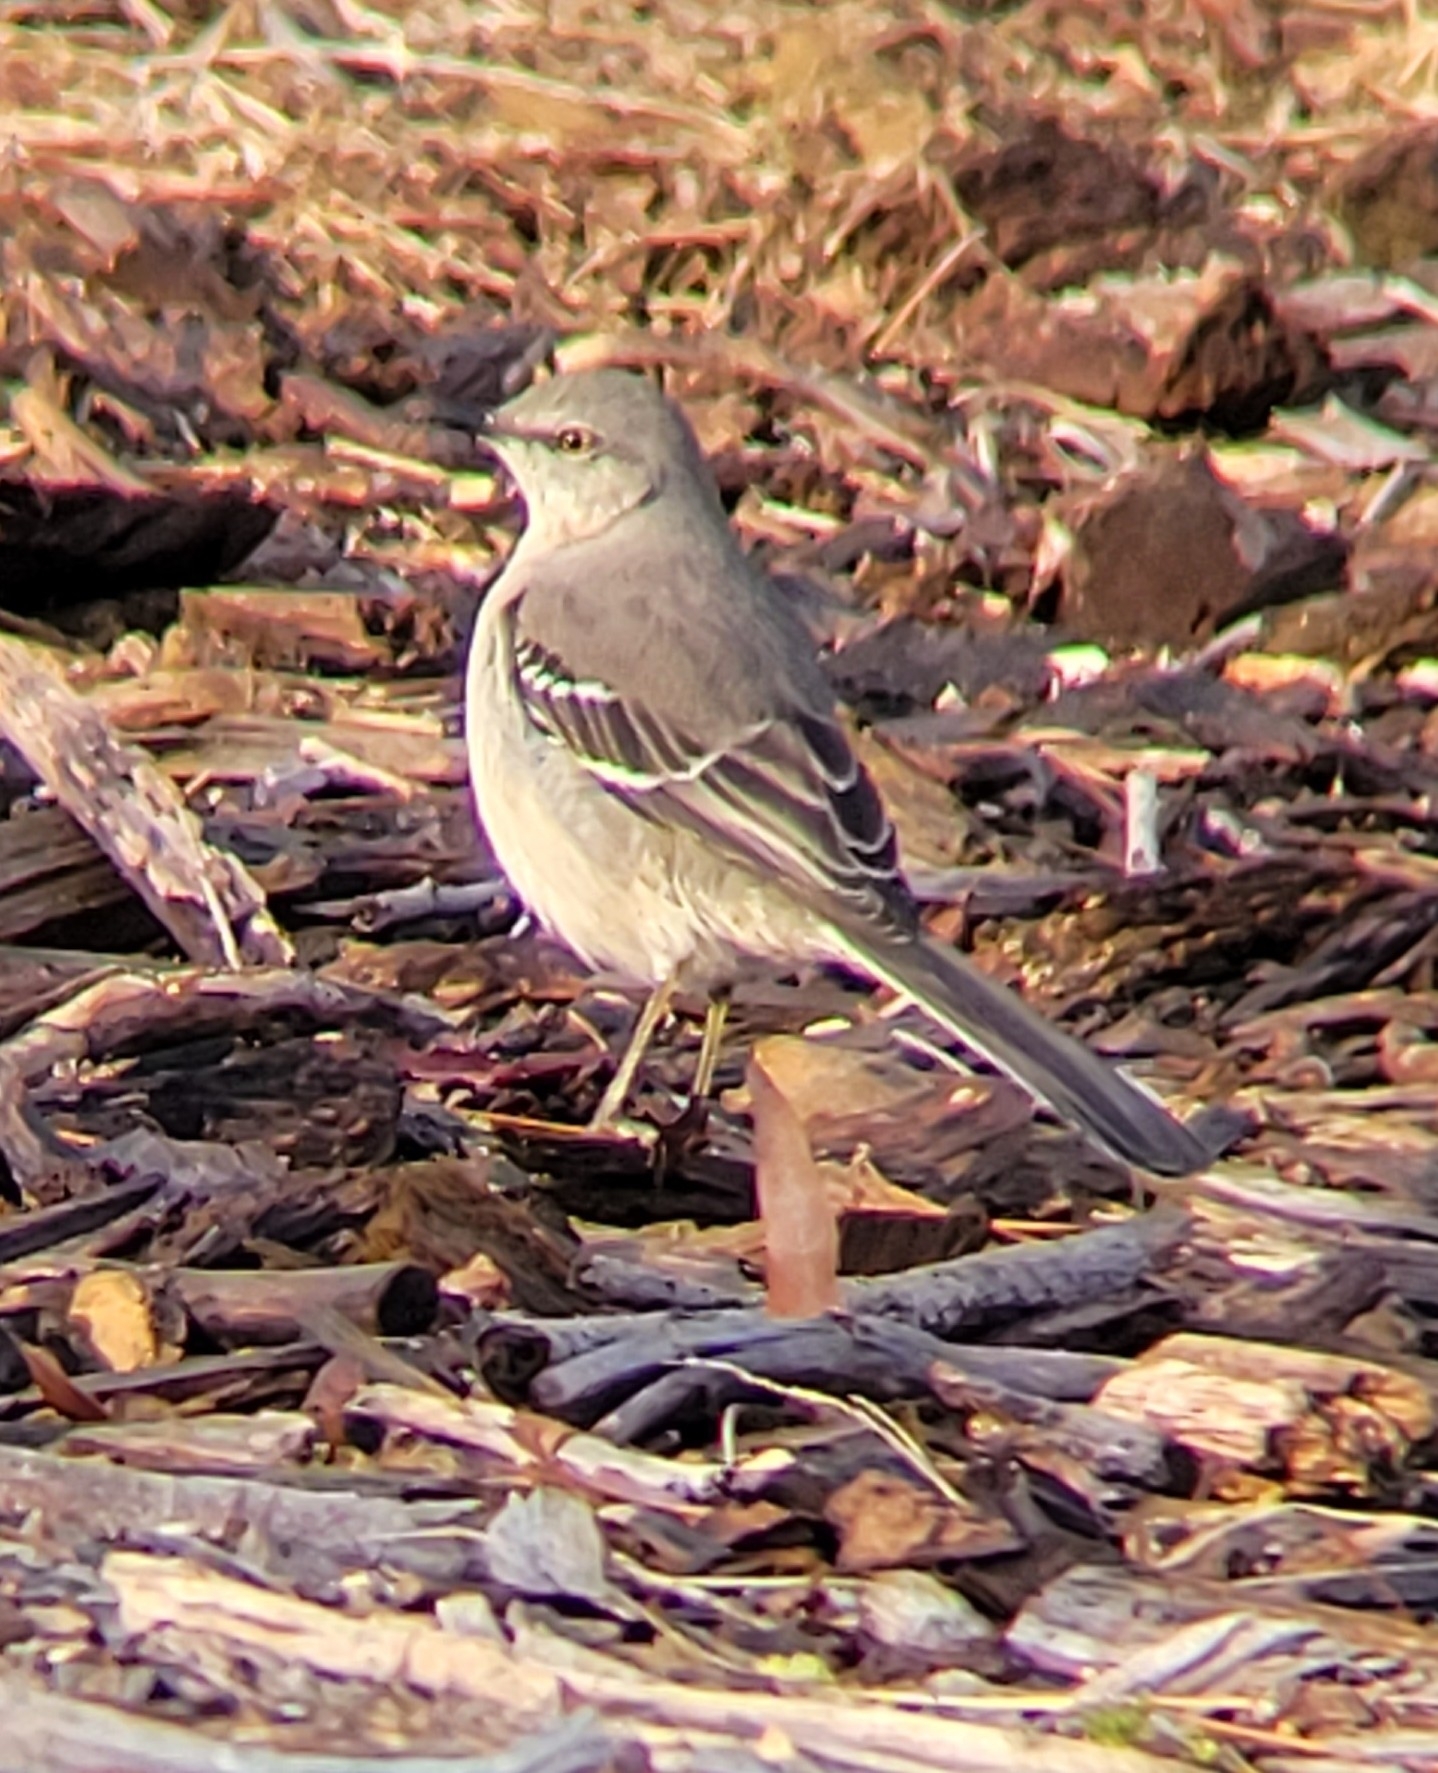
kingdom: Animalia
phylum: Chordata
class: Aves
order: Passeriformes
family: Mimidae
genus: Mimus
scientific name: Mimus polyglottos
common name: Northern mockingbird
